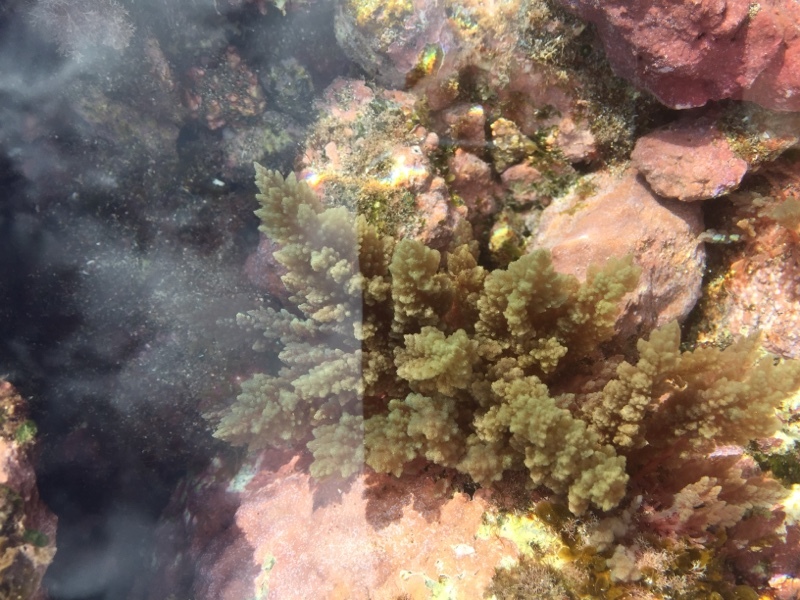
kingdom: Plantae
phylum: Rhodophyta
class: Florideophyceae
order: Bonnemaisoniales
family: Bonnemaisoniaceae
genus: Asparagopsis
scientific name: Asparagopsis taxiformis
